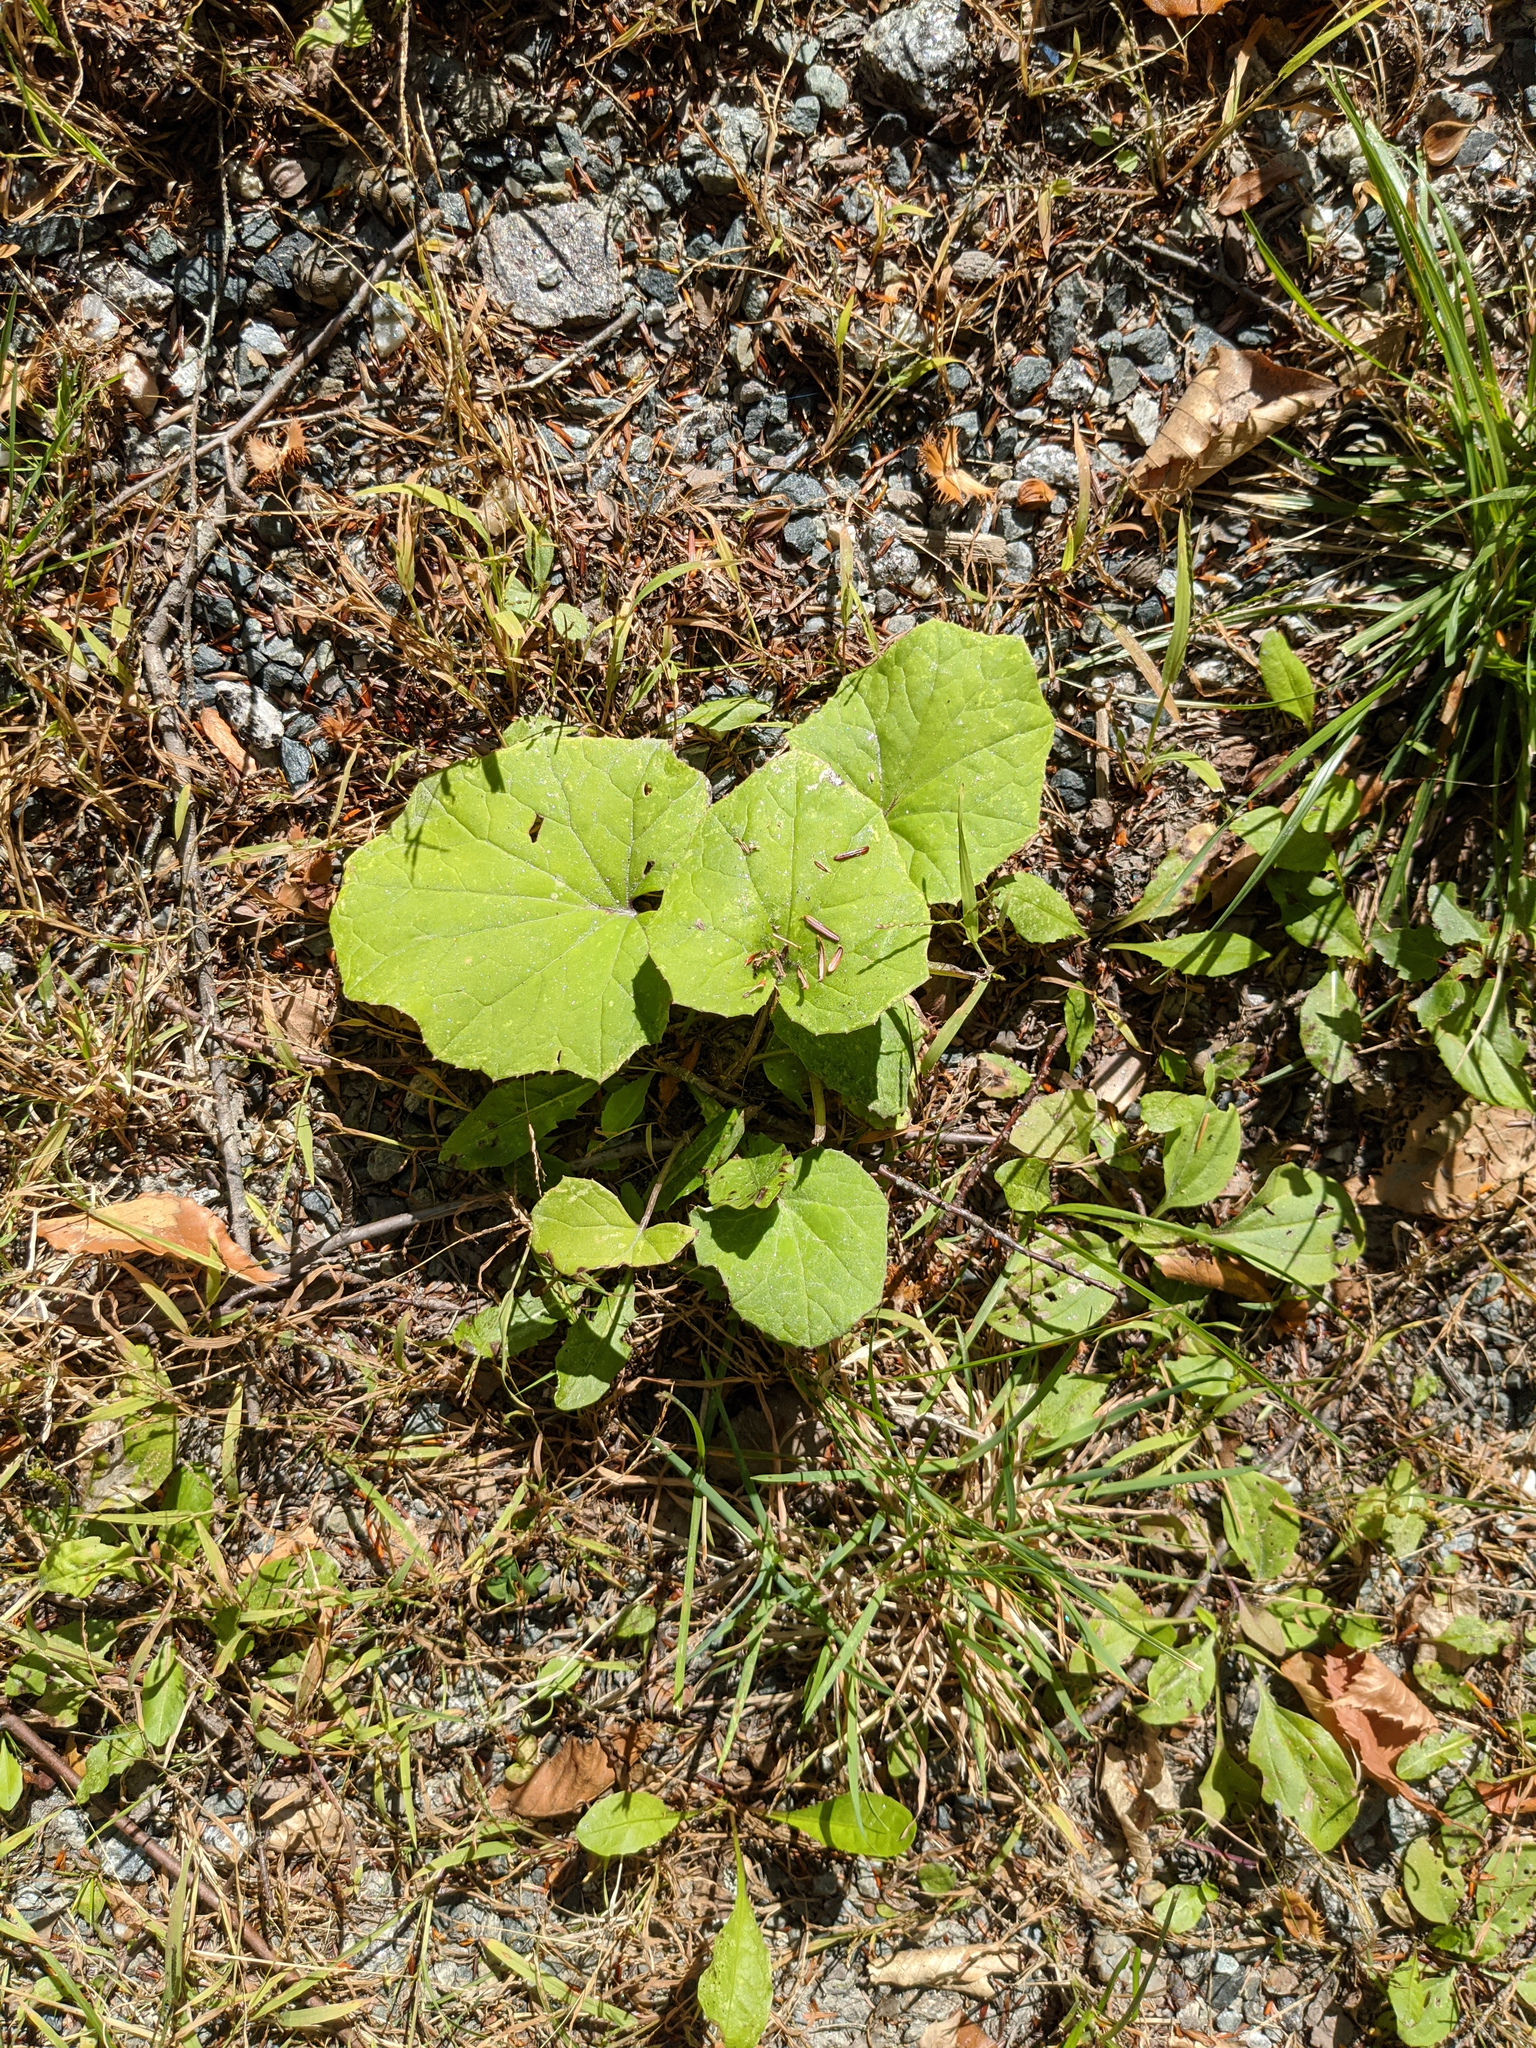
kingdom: Plantae
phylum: Tracheophyta
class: Magnoliopsida
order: Asterales
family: Asteraceae
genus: Tussilago
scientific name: Tussilago farfara
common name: Coltsfoot
